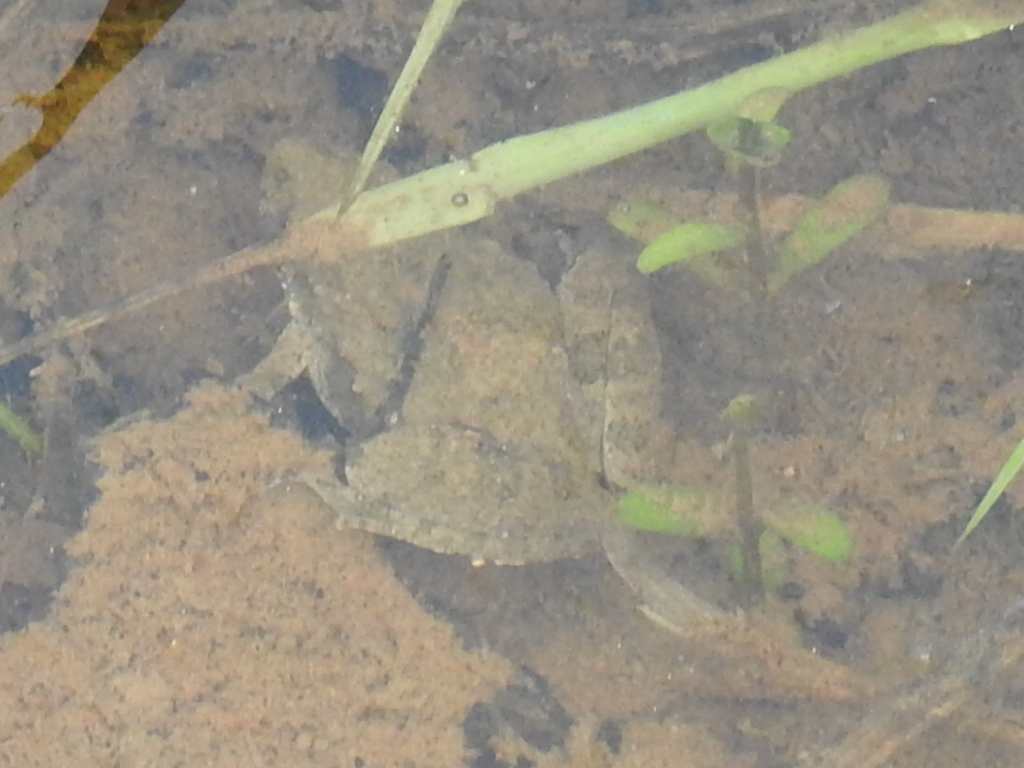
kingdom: Animalia
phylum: Chordata
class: Amphibia
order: Anura
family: Hylidae
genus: Acris
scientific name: Acris blanchardi
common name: Blanchard's cricket frog
